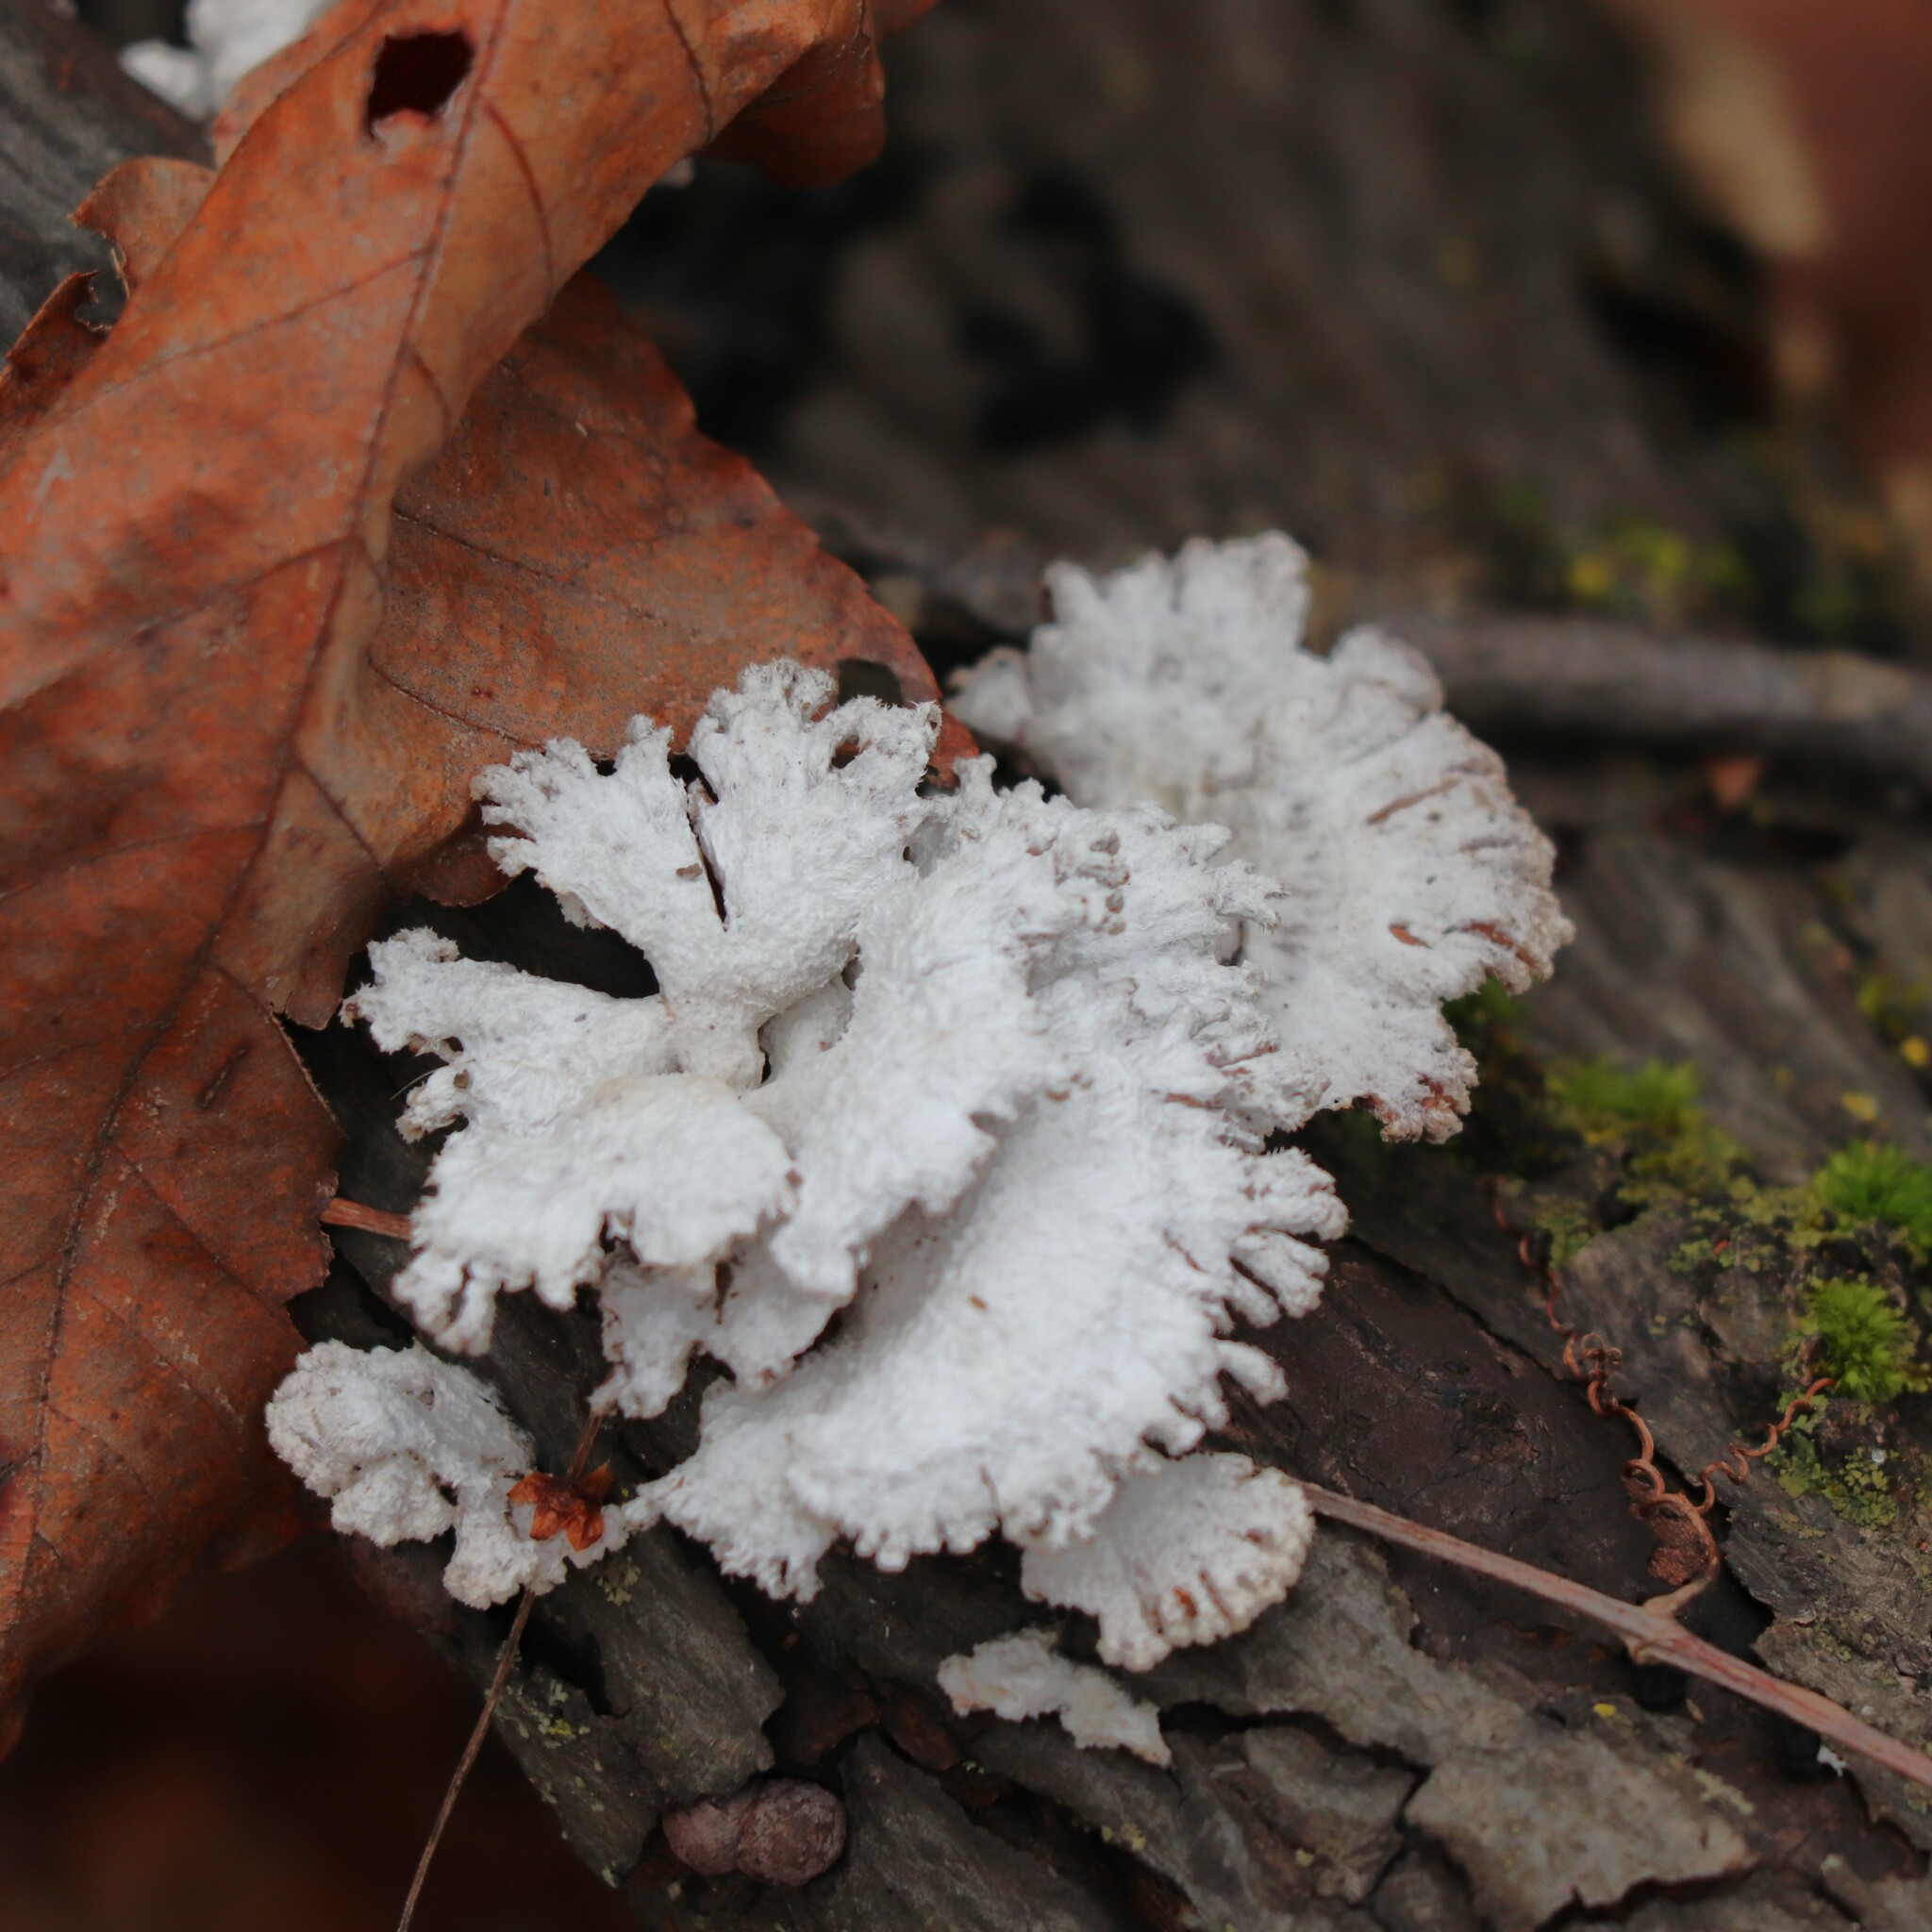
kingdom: Fungi
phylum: Basidiomycota
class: Agaricomycetes
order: Agaricales
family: Schizophyllaceae
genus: Schizophyllum
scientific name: Schizophyllum commune
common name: Common porecrust
